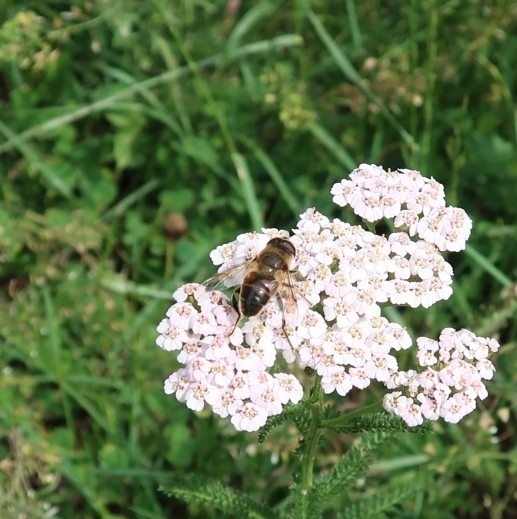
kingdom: Animalia
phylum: Arthropoda
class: Insecta
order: Diptera
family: Syrphidae
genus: Eristalis
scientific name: Eristalis tenax
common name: Drone fly
